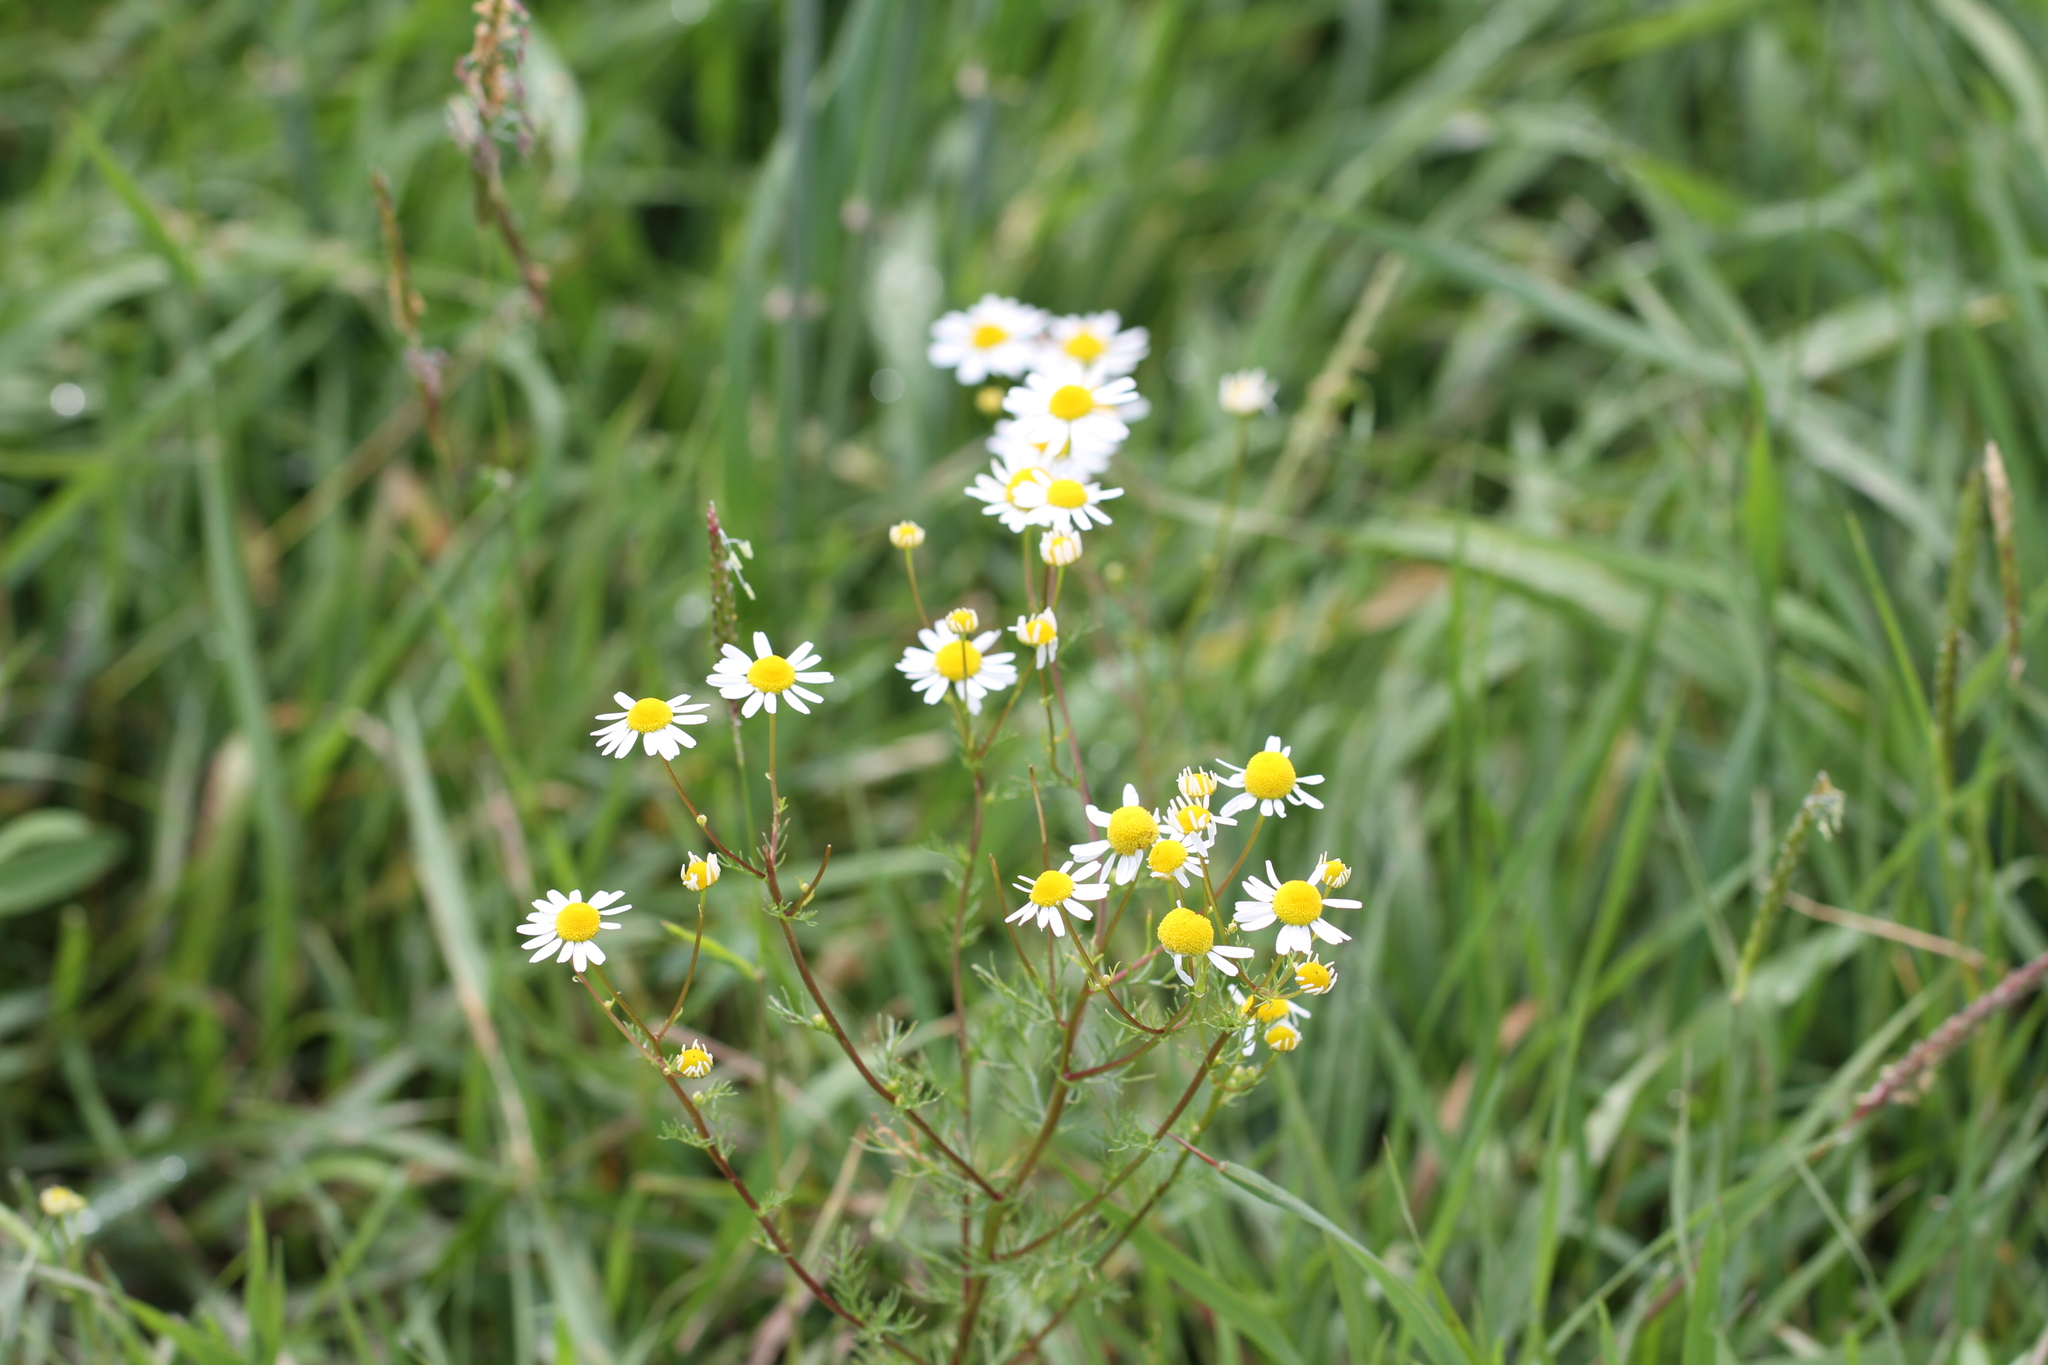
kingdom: Plantae
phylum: Tracheophyta
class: Magnoliopsida
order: Asterales
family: Asteraceae
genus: Tripleurospermum
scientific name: Tripleurospermum inodorum
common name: Scentless mayweed
